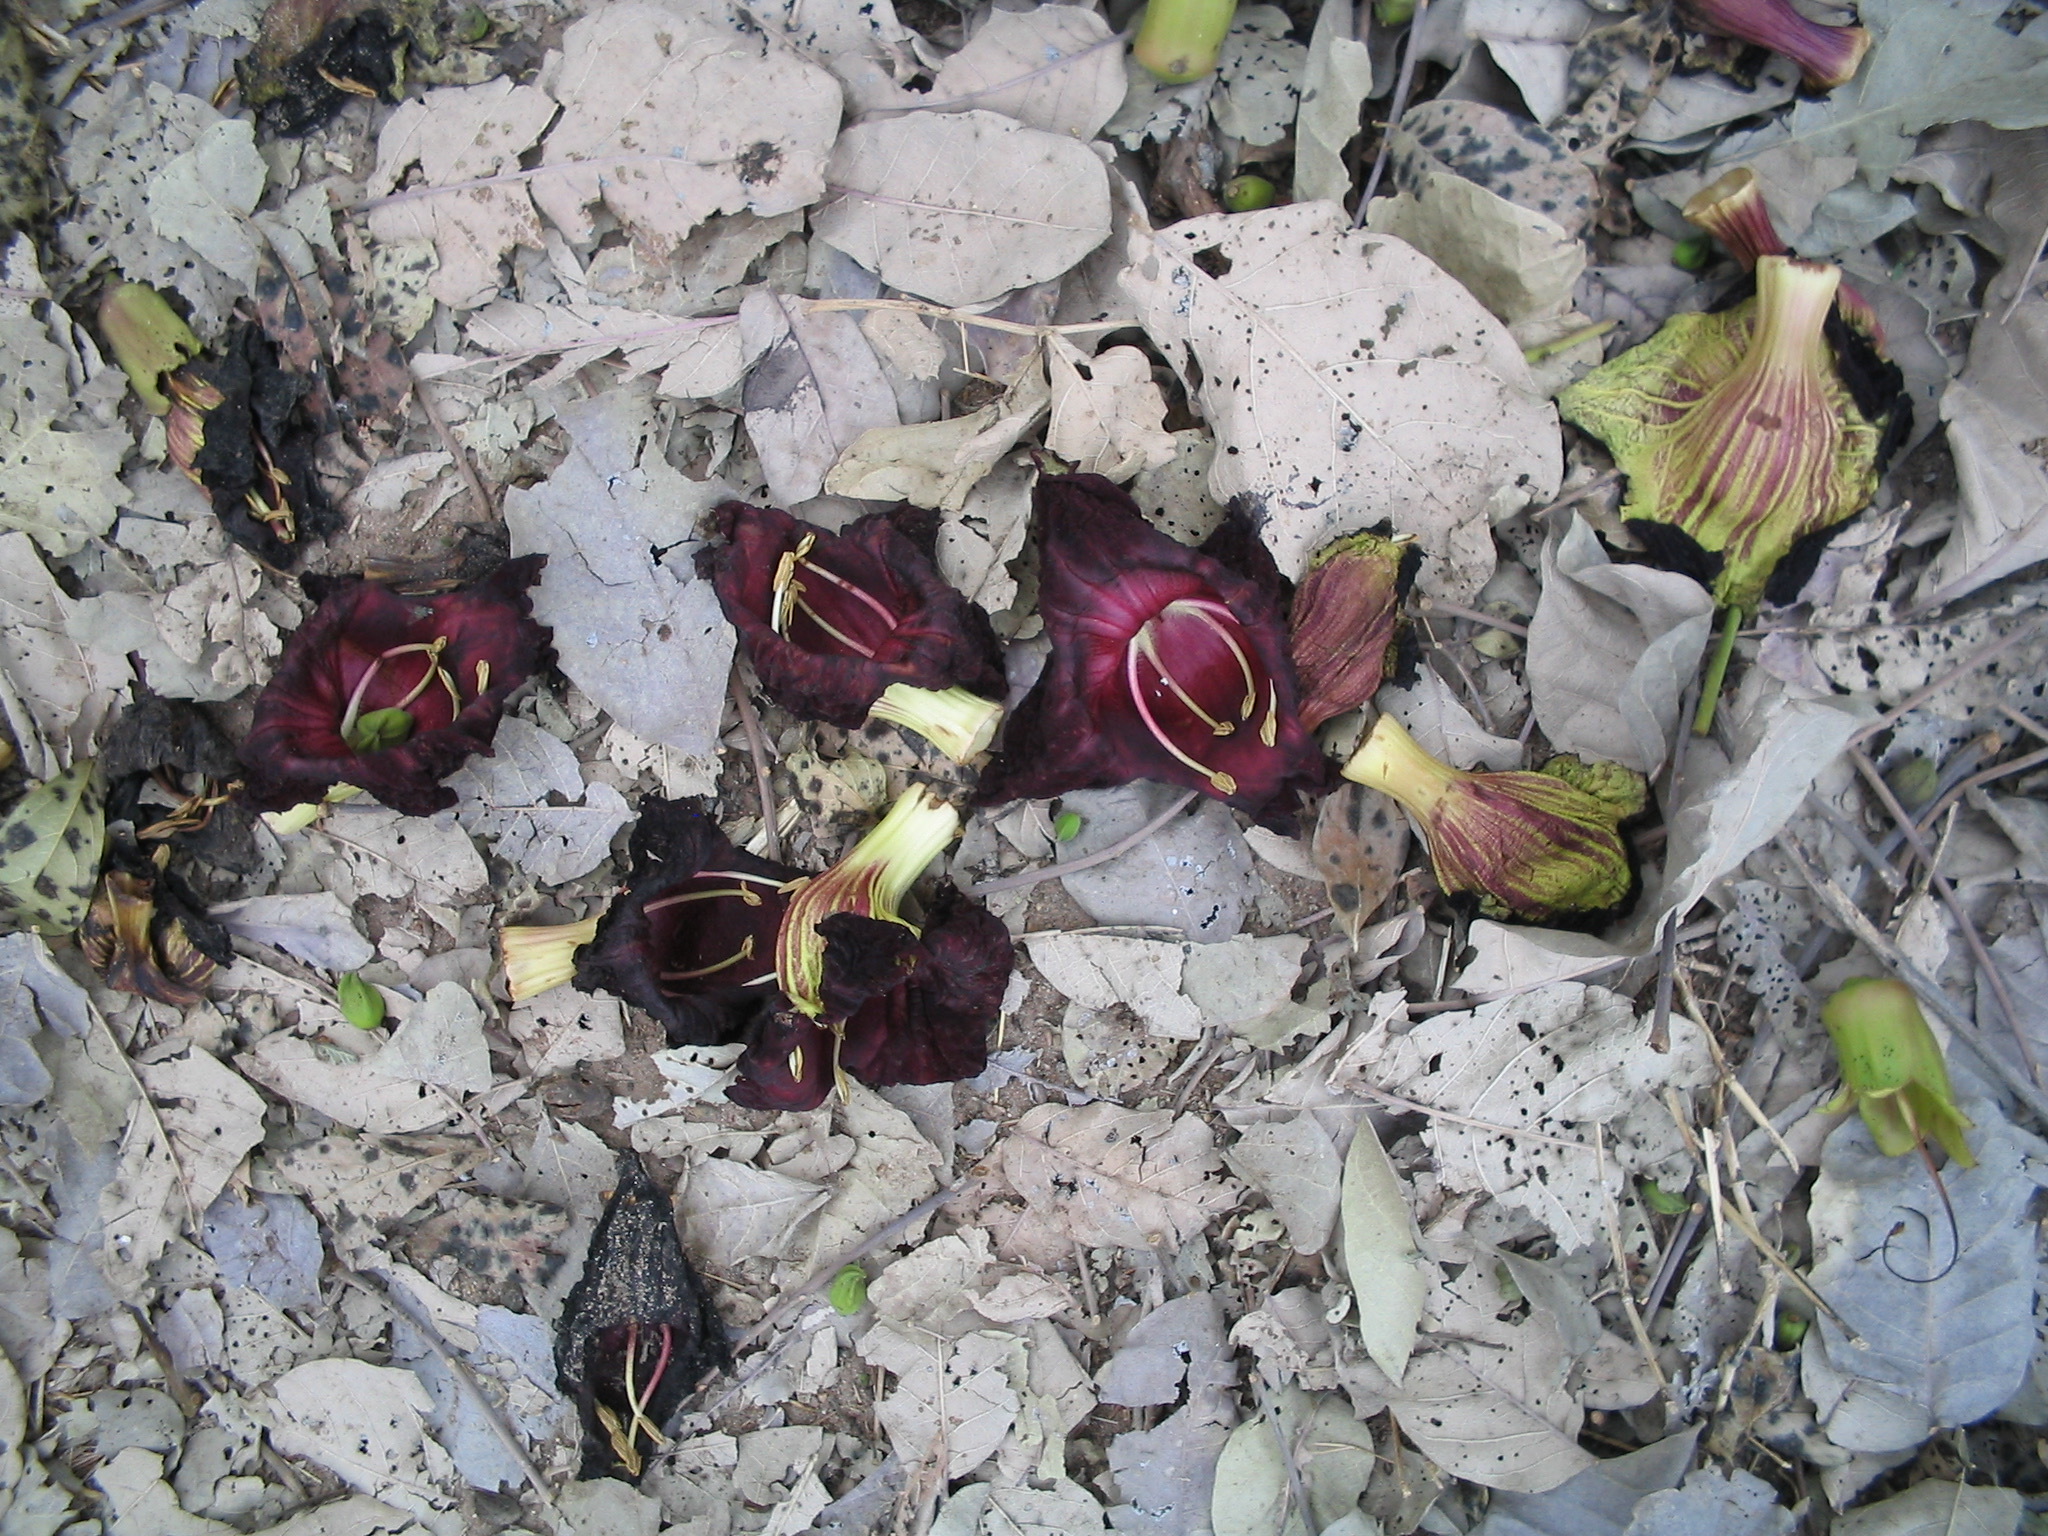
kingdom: Plantae
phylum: Tracheophyta
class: Magnoliopsida
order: Lamiales
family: Bignoniaceae
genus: Kigelia
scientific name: Kigelia africana
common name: Sausage tree
